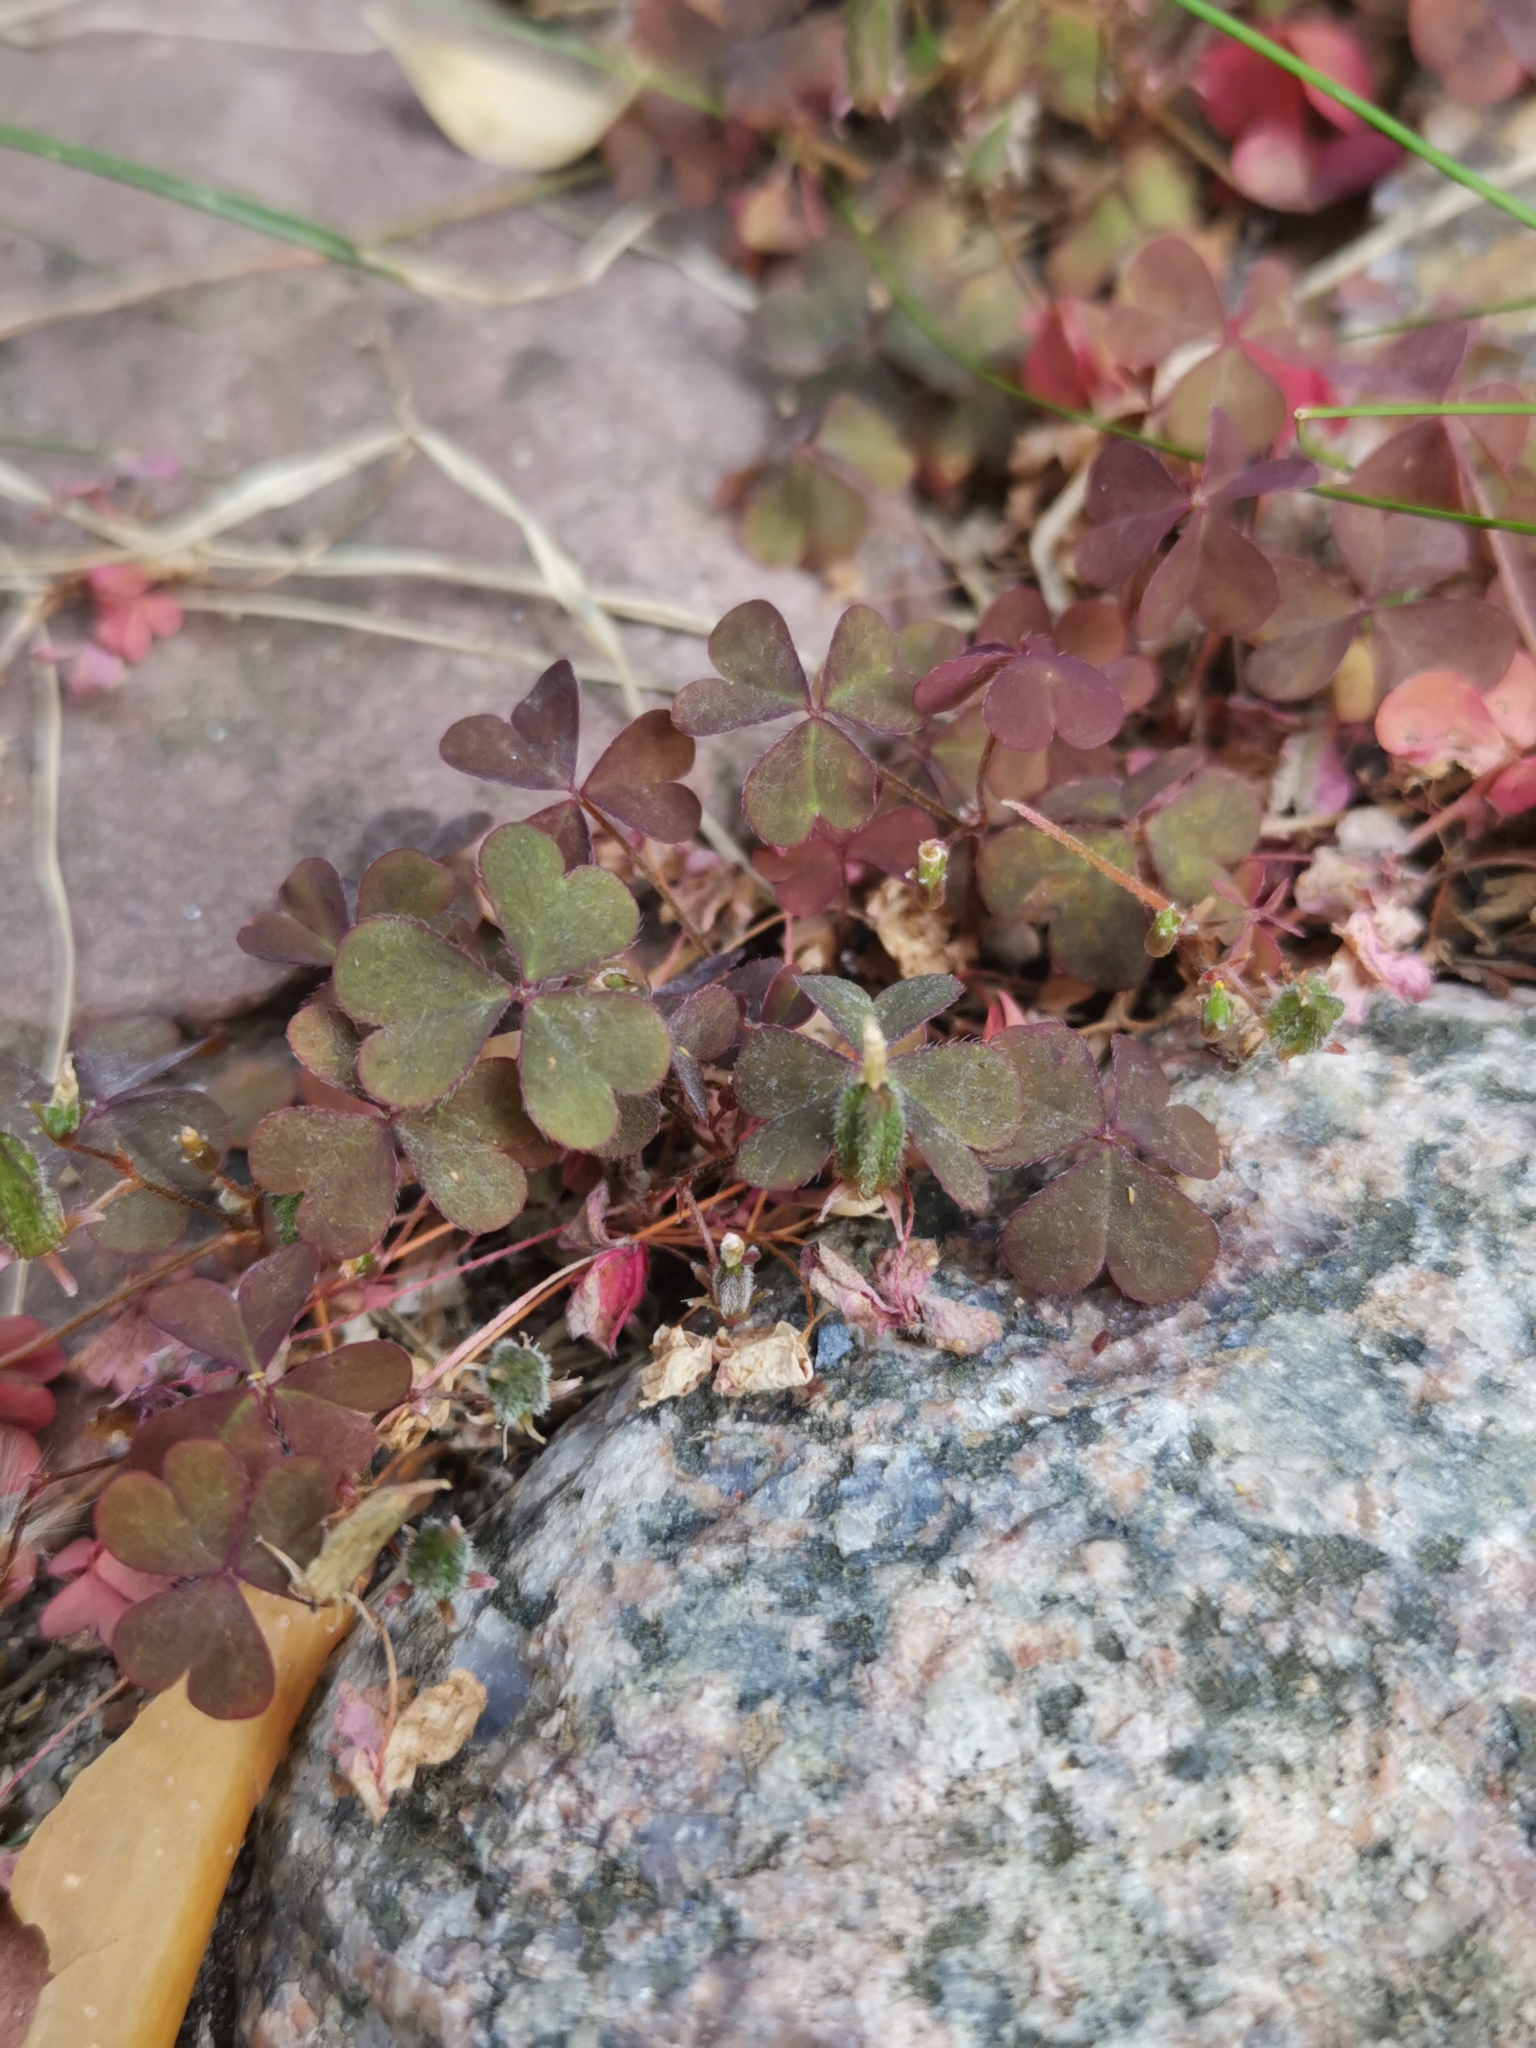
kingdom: Plantae
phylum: Tracheophyta
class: Magnoliopsida
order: Oxalidales
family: Oxalidaceae
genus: Oxalis
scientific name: Oxalis corniculata
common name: Procumbent yellow-sorrel
